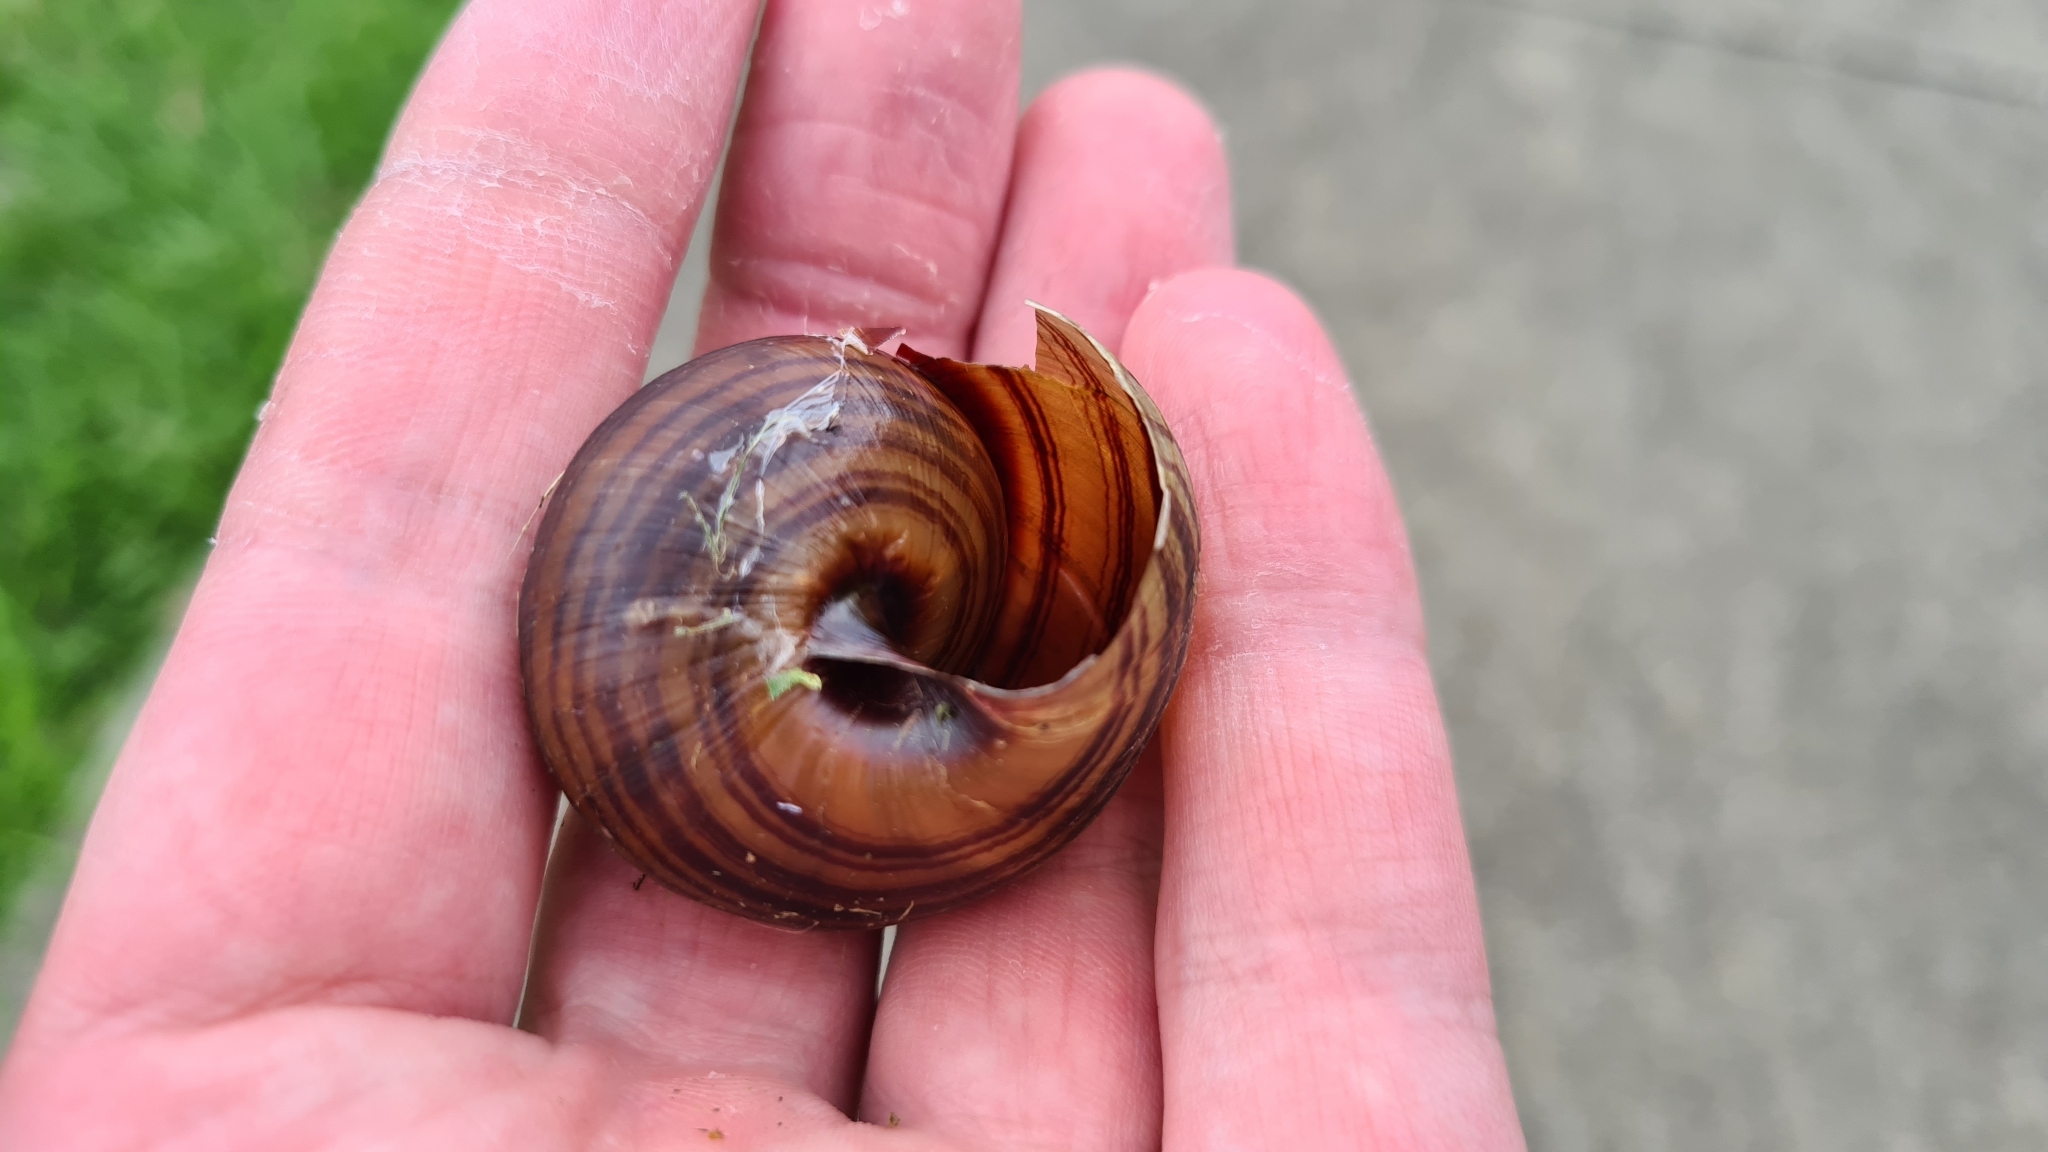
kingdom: Animalia
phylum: Mollusca
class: Gastropoda
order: Stylommatophora
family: Camaenidae
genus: Sphaerospira
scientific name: Sphaerospira fraseri
